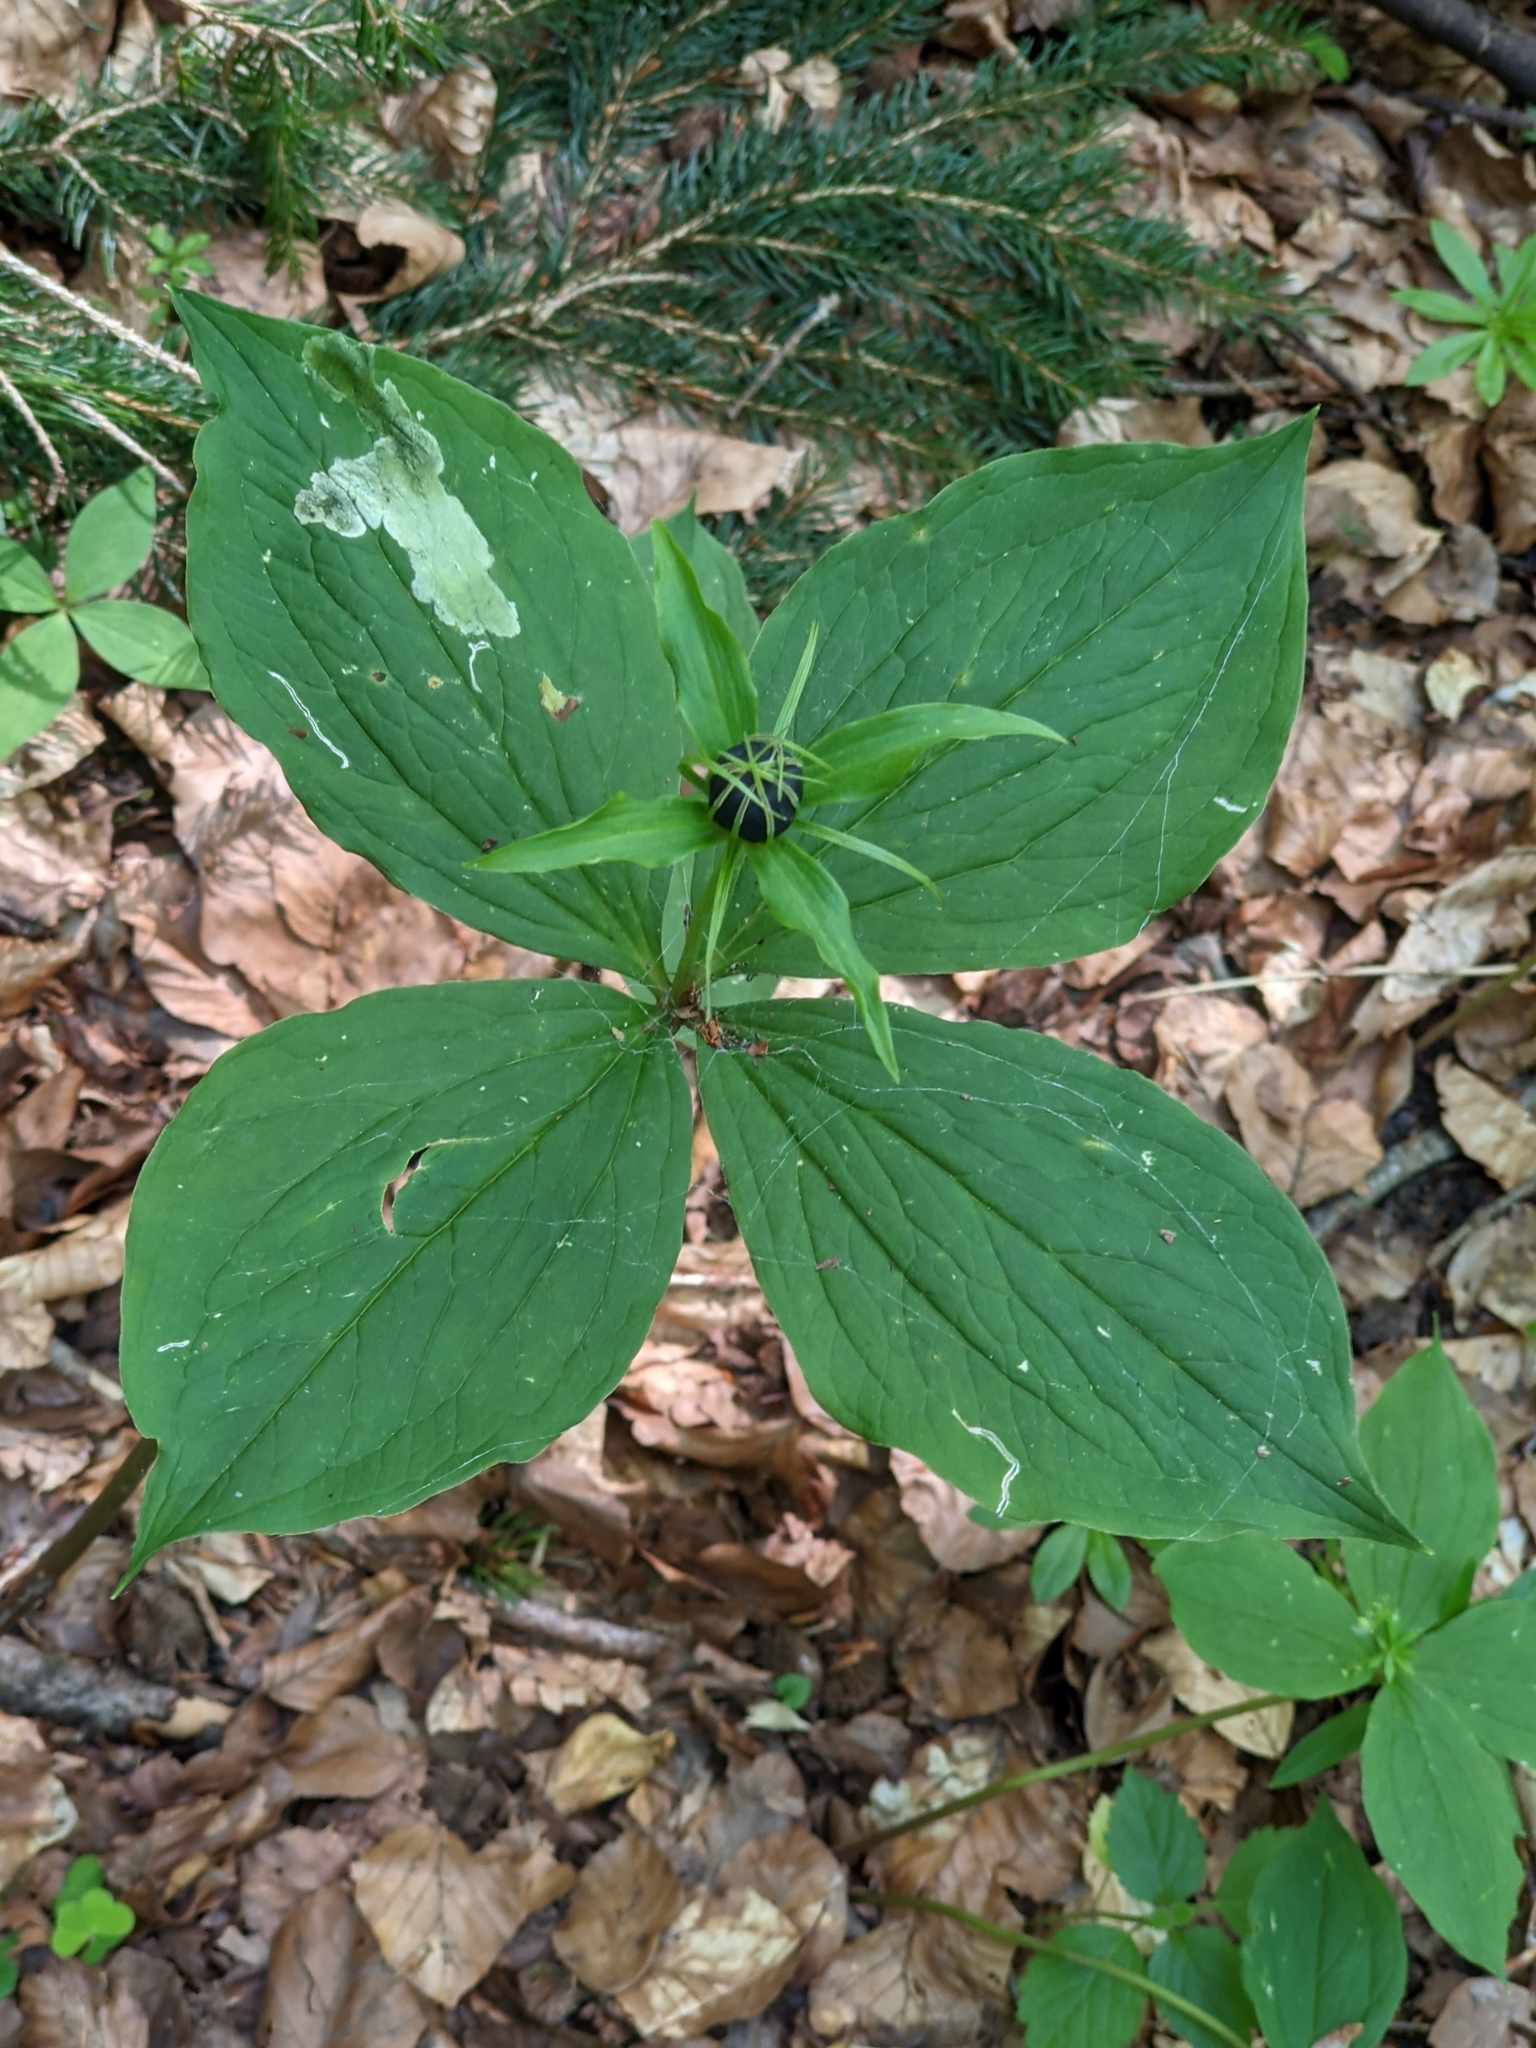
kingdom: Plantae
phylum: Tracheophyta
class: Liliopsida
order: Liliales
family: Melanthiaceae
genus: Paris
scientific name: Paris quadrifolia
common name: Herb-paris
